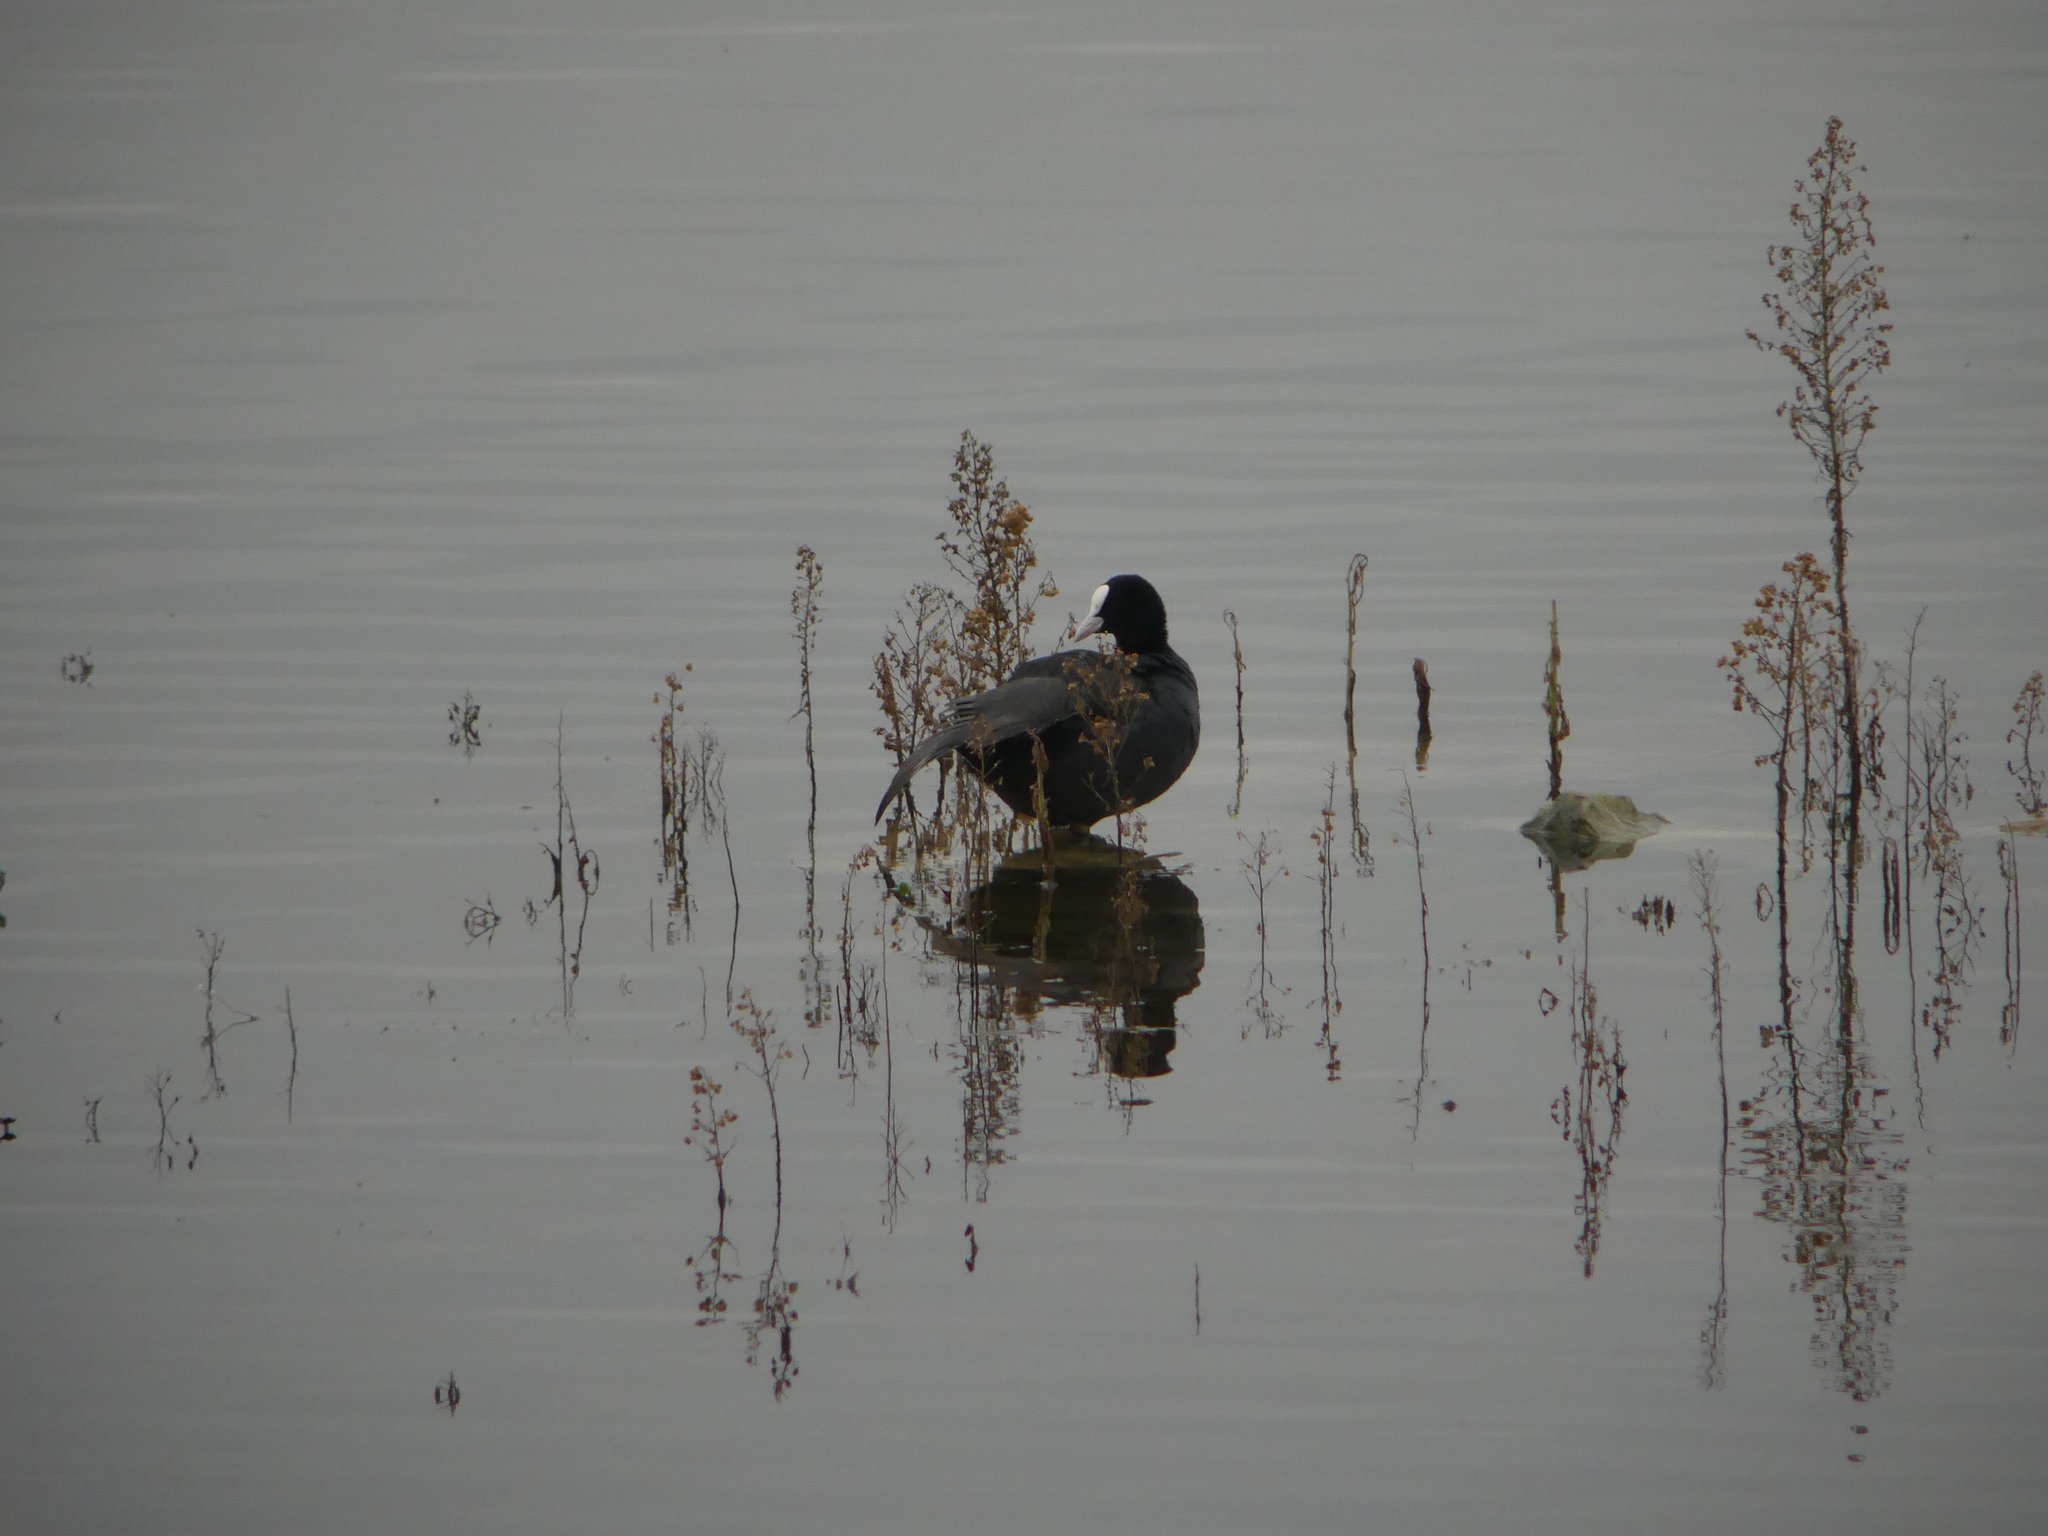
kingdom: Animalia
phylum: Chordata
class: Aves
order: Gruiformes
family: Rallidae
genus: Fulica
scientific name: Fulica atra
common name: Eurasian coot
